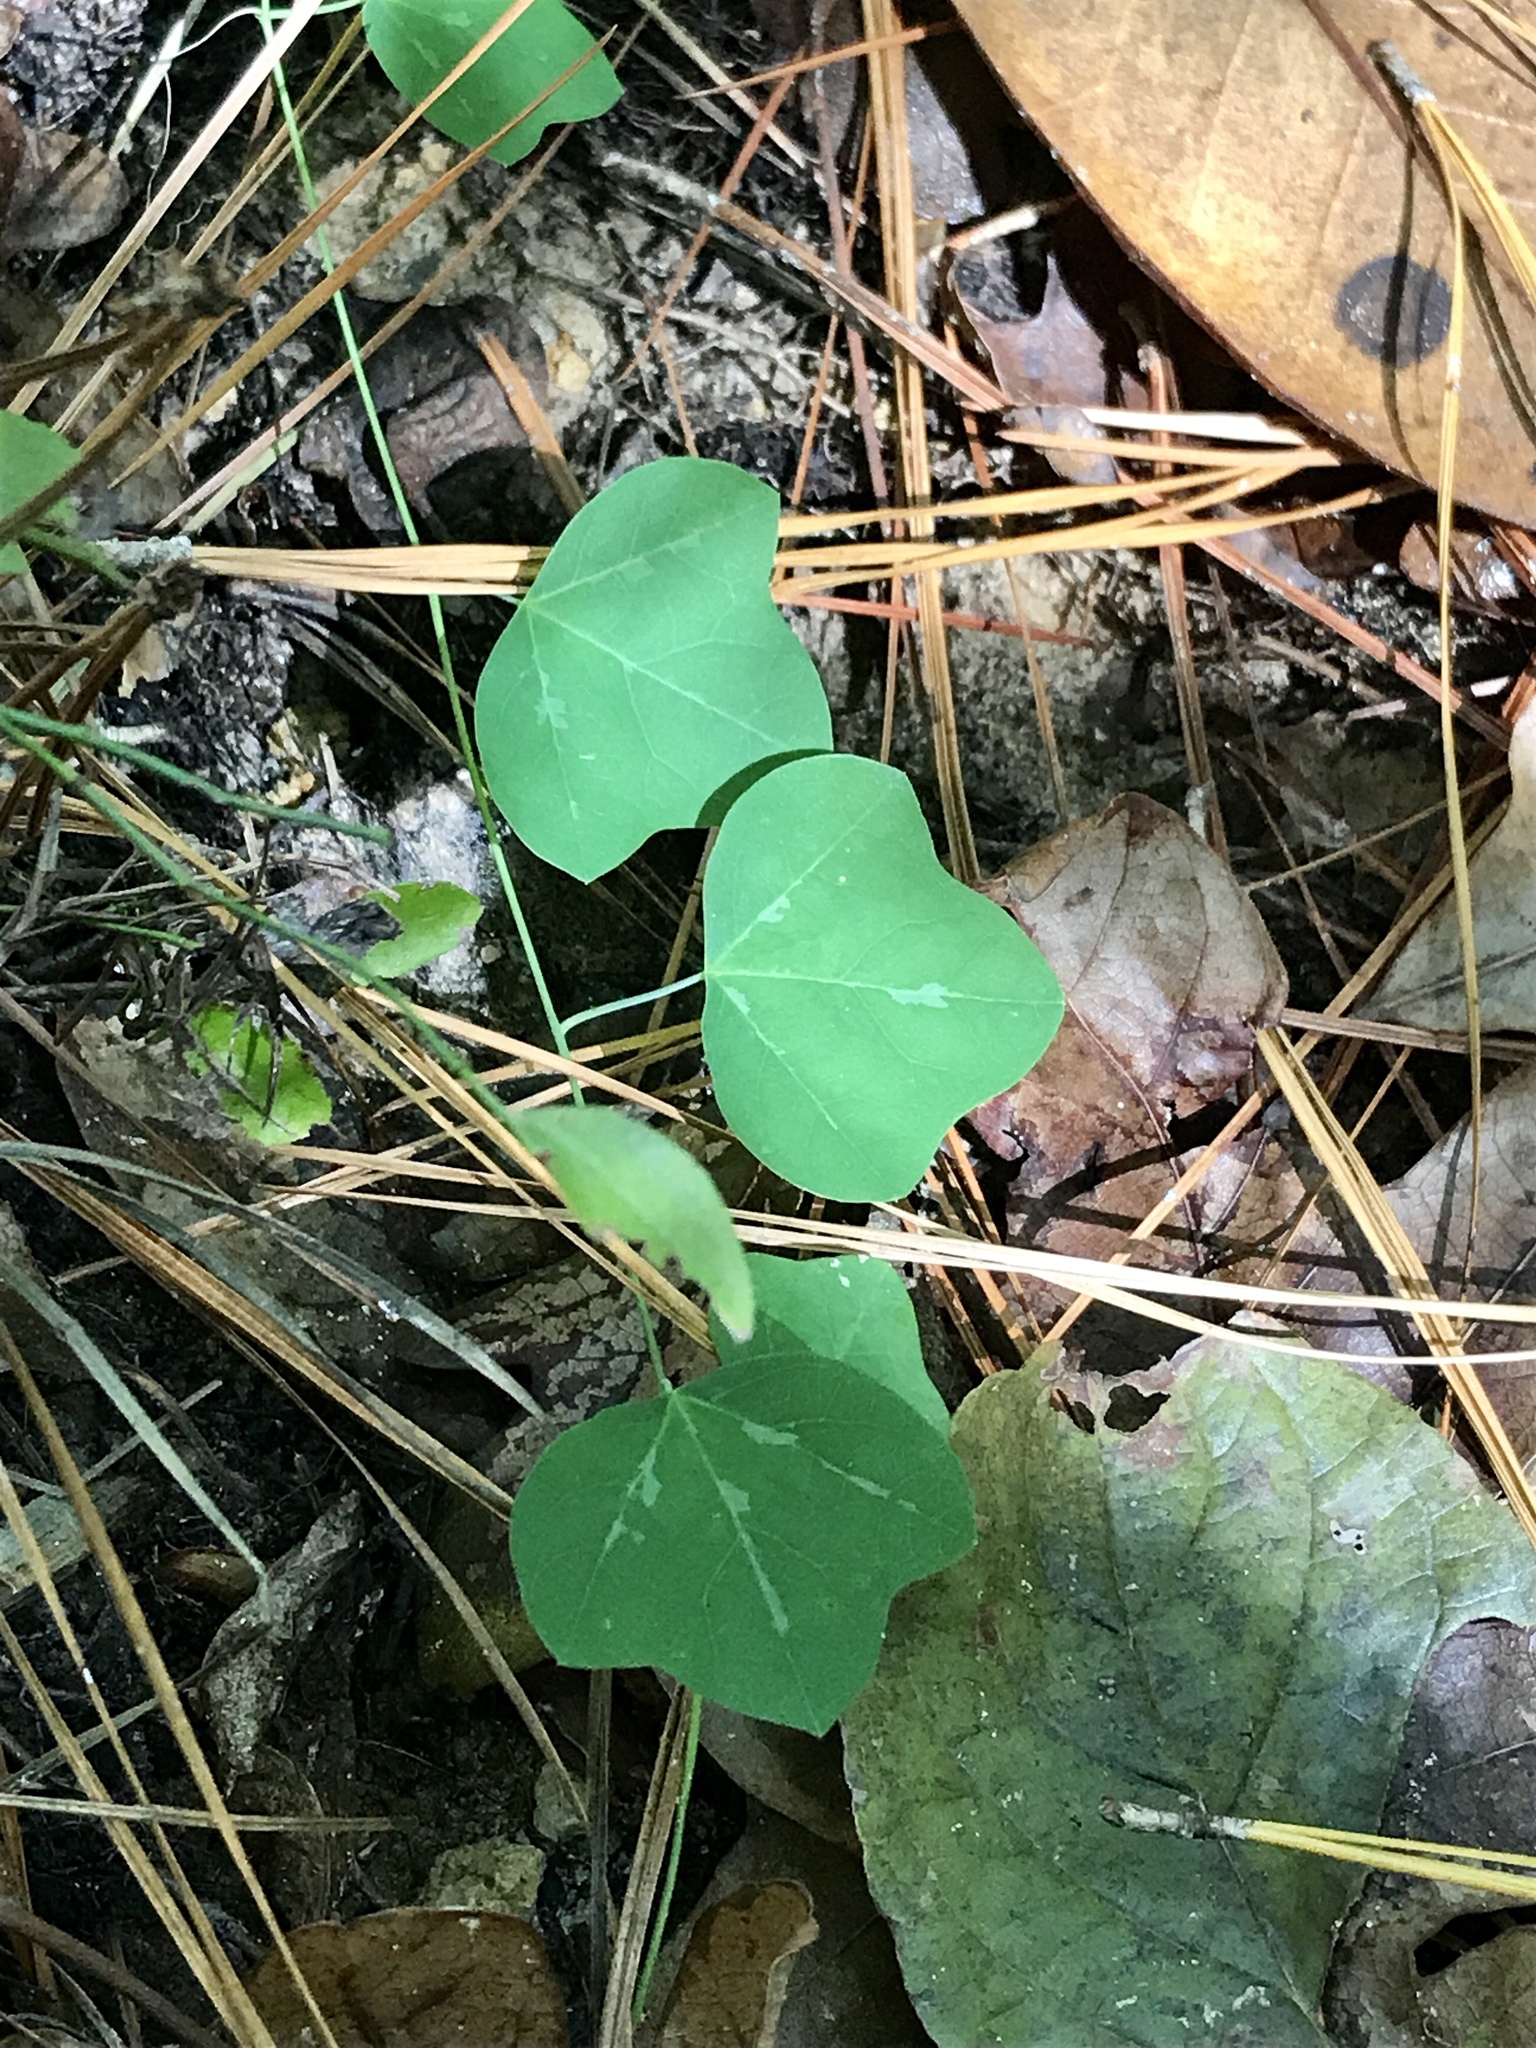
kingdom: Plantae
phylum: Tracheophyta
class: Magnoliopsida
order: Malpighiales
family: Passifloraceae
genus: Passiflora
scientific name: Passiflora lutea
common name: Yellow passionflower
